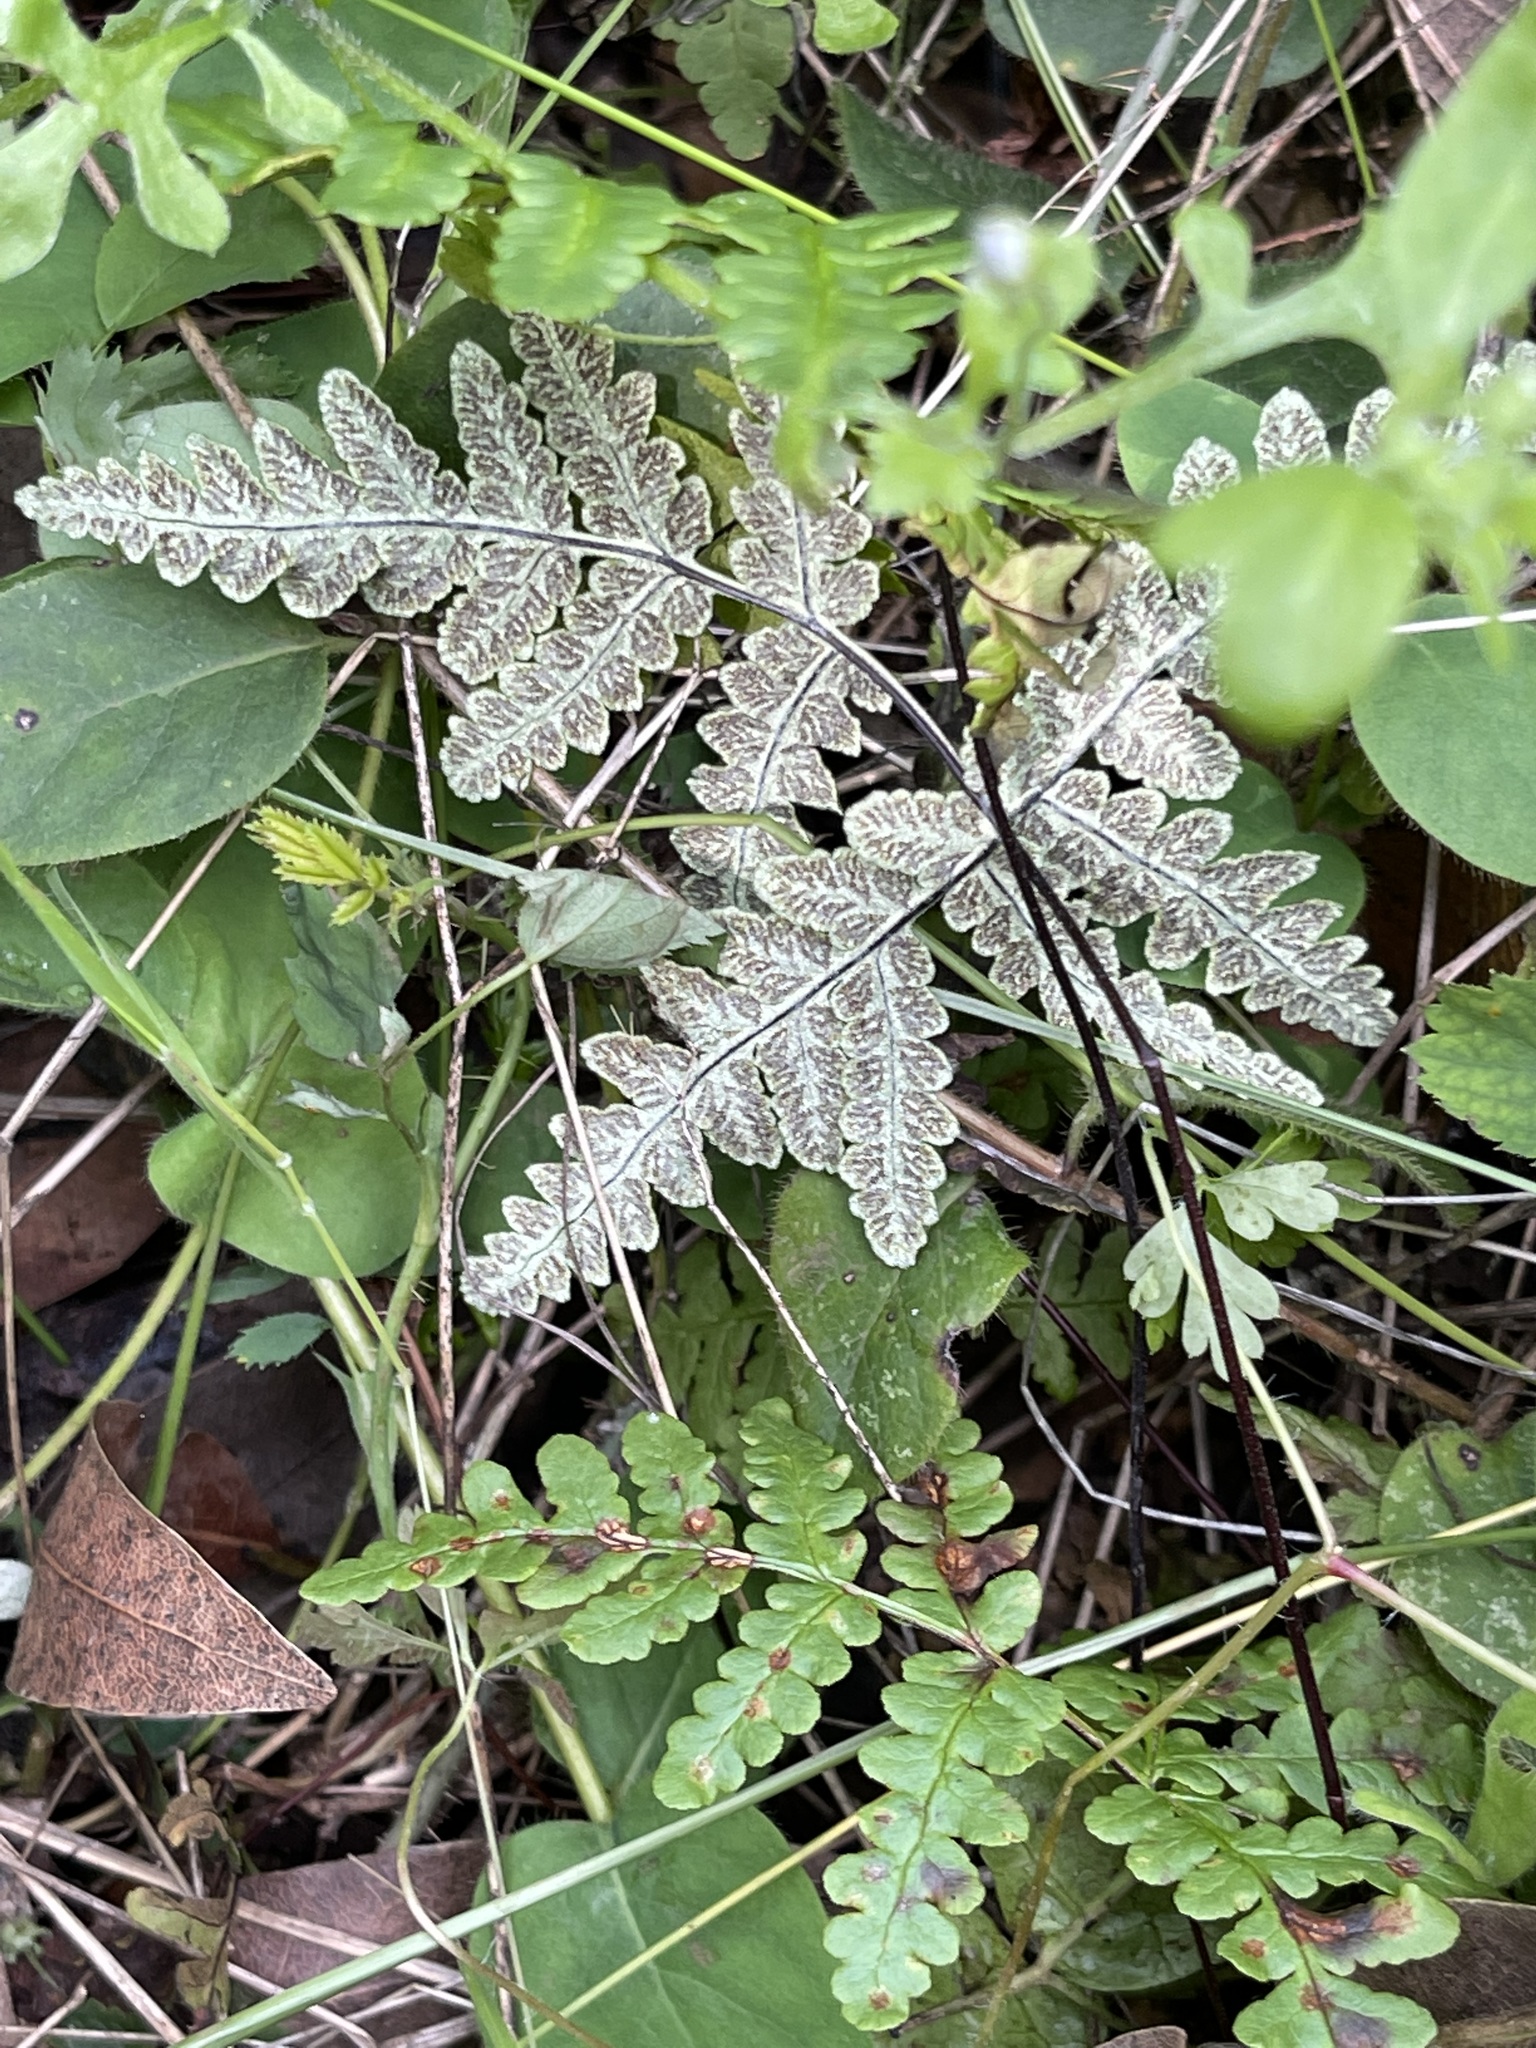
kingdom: Plantae
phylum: Tracheophyta
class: Polypodiopsida
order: Polypodiales
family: Pteridaceae
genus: Pentagramma
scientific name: Pentagramma triangularis
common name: Gold fern
